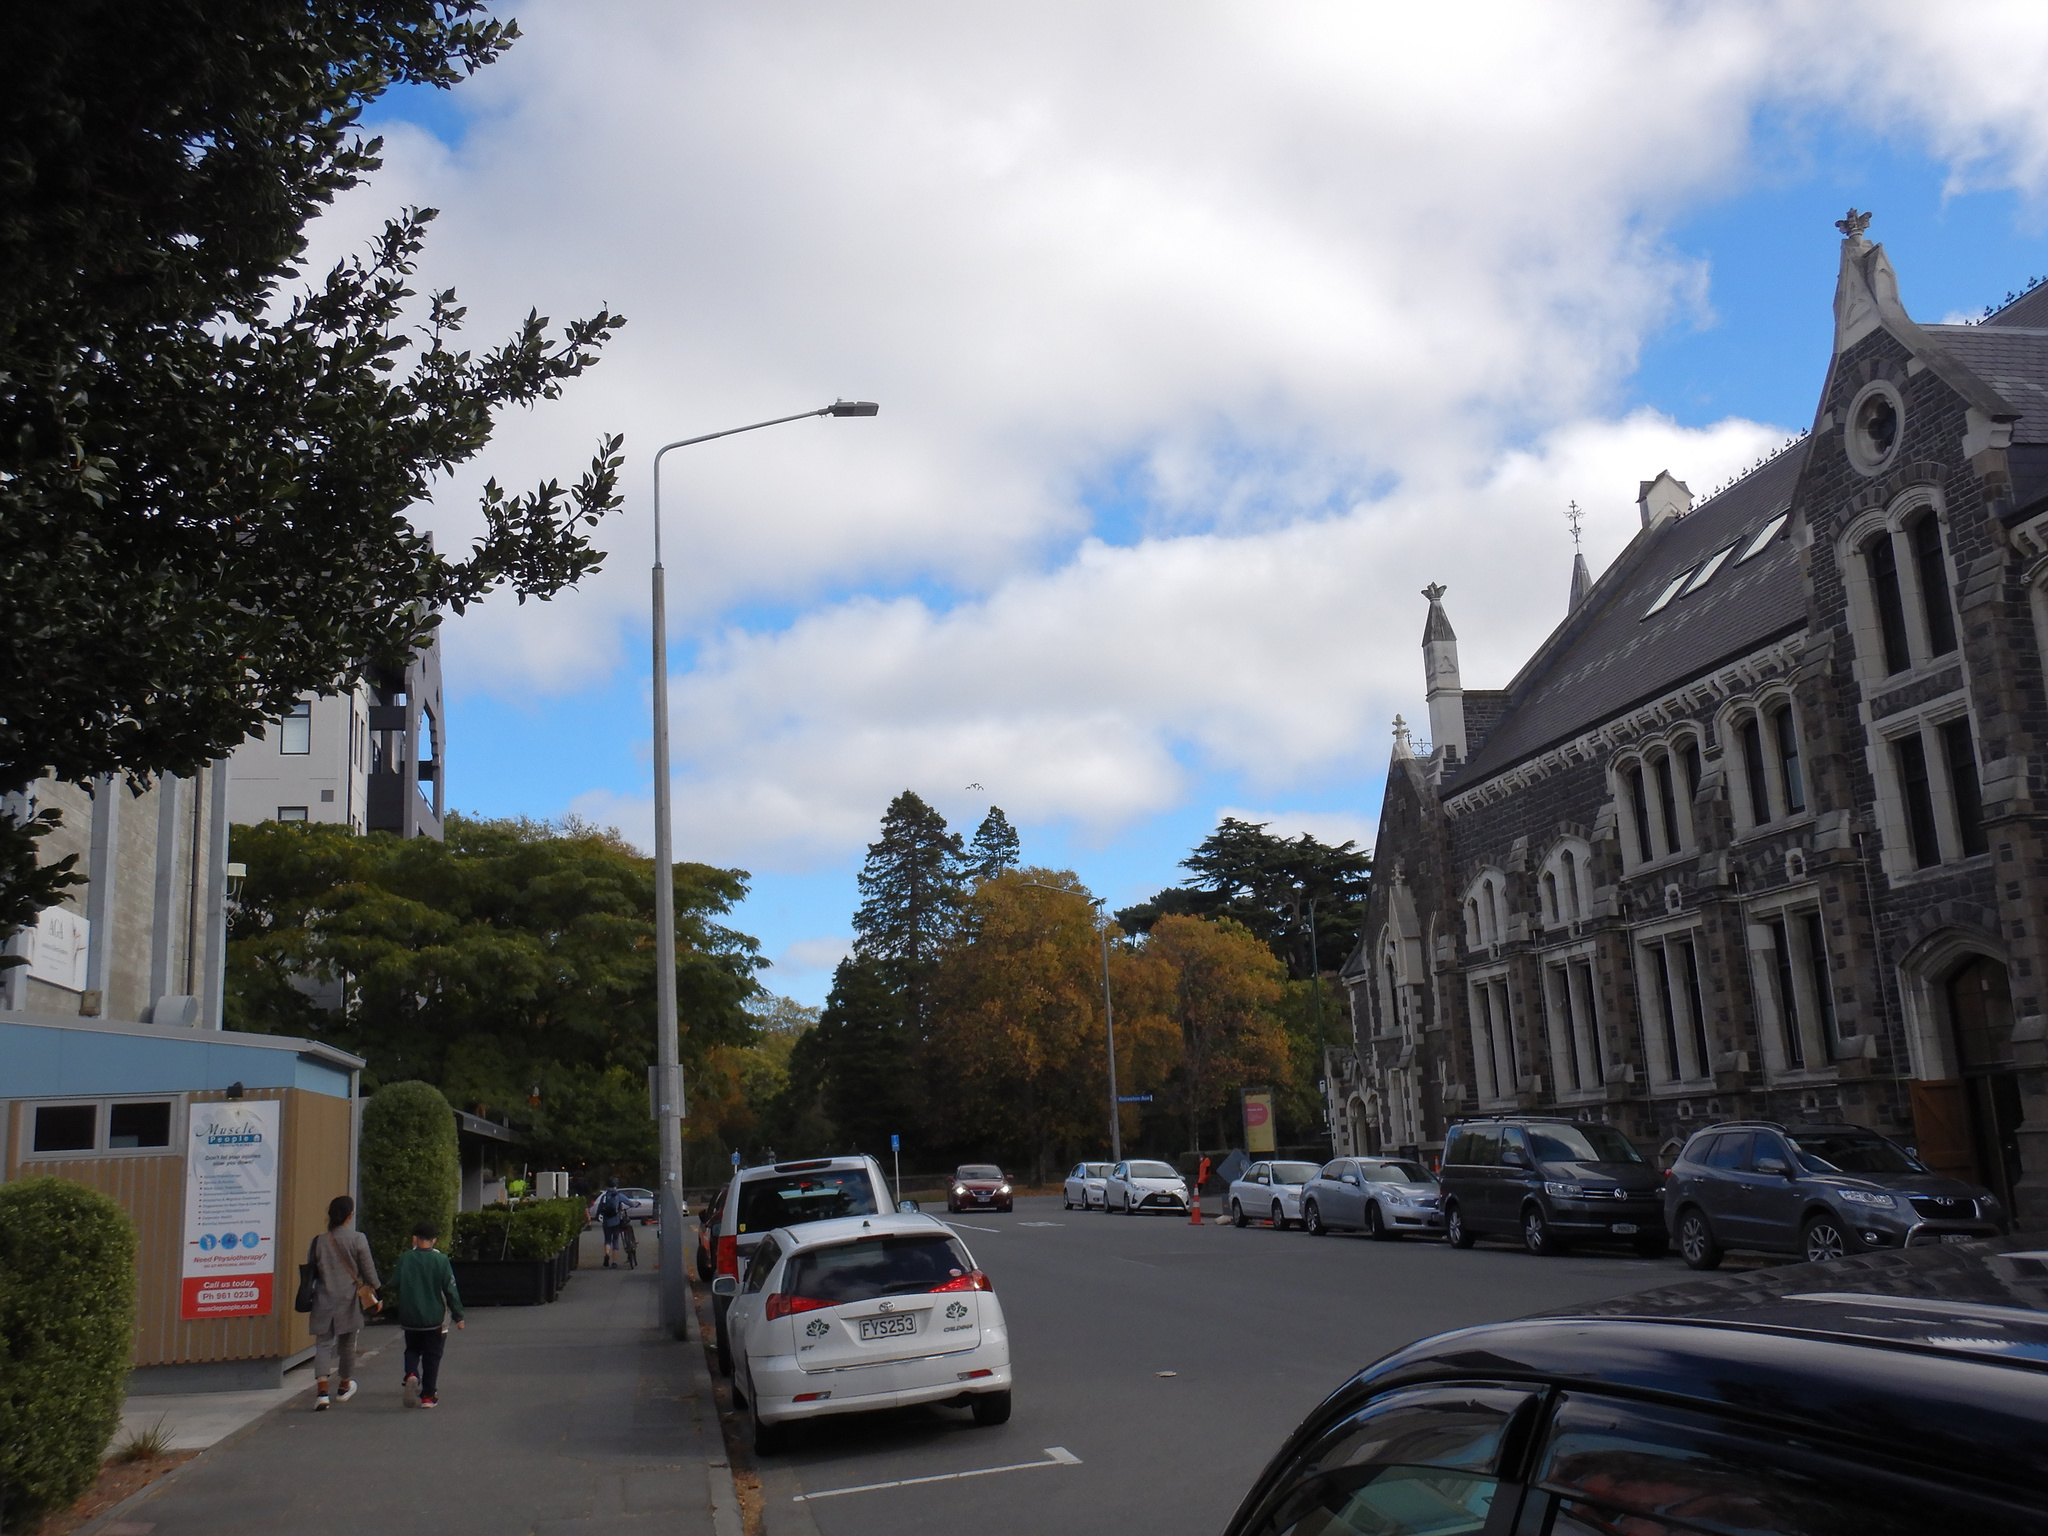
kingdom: Animalia
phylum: Chordata
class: Aves
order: Anseriformes
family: Anatidae
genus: Tadorna
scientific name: Tadorna variegata
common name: Paradise shelduck
